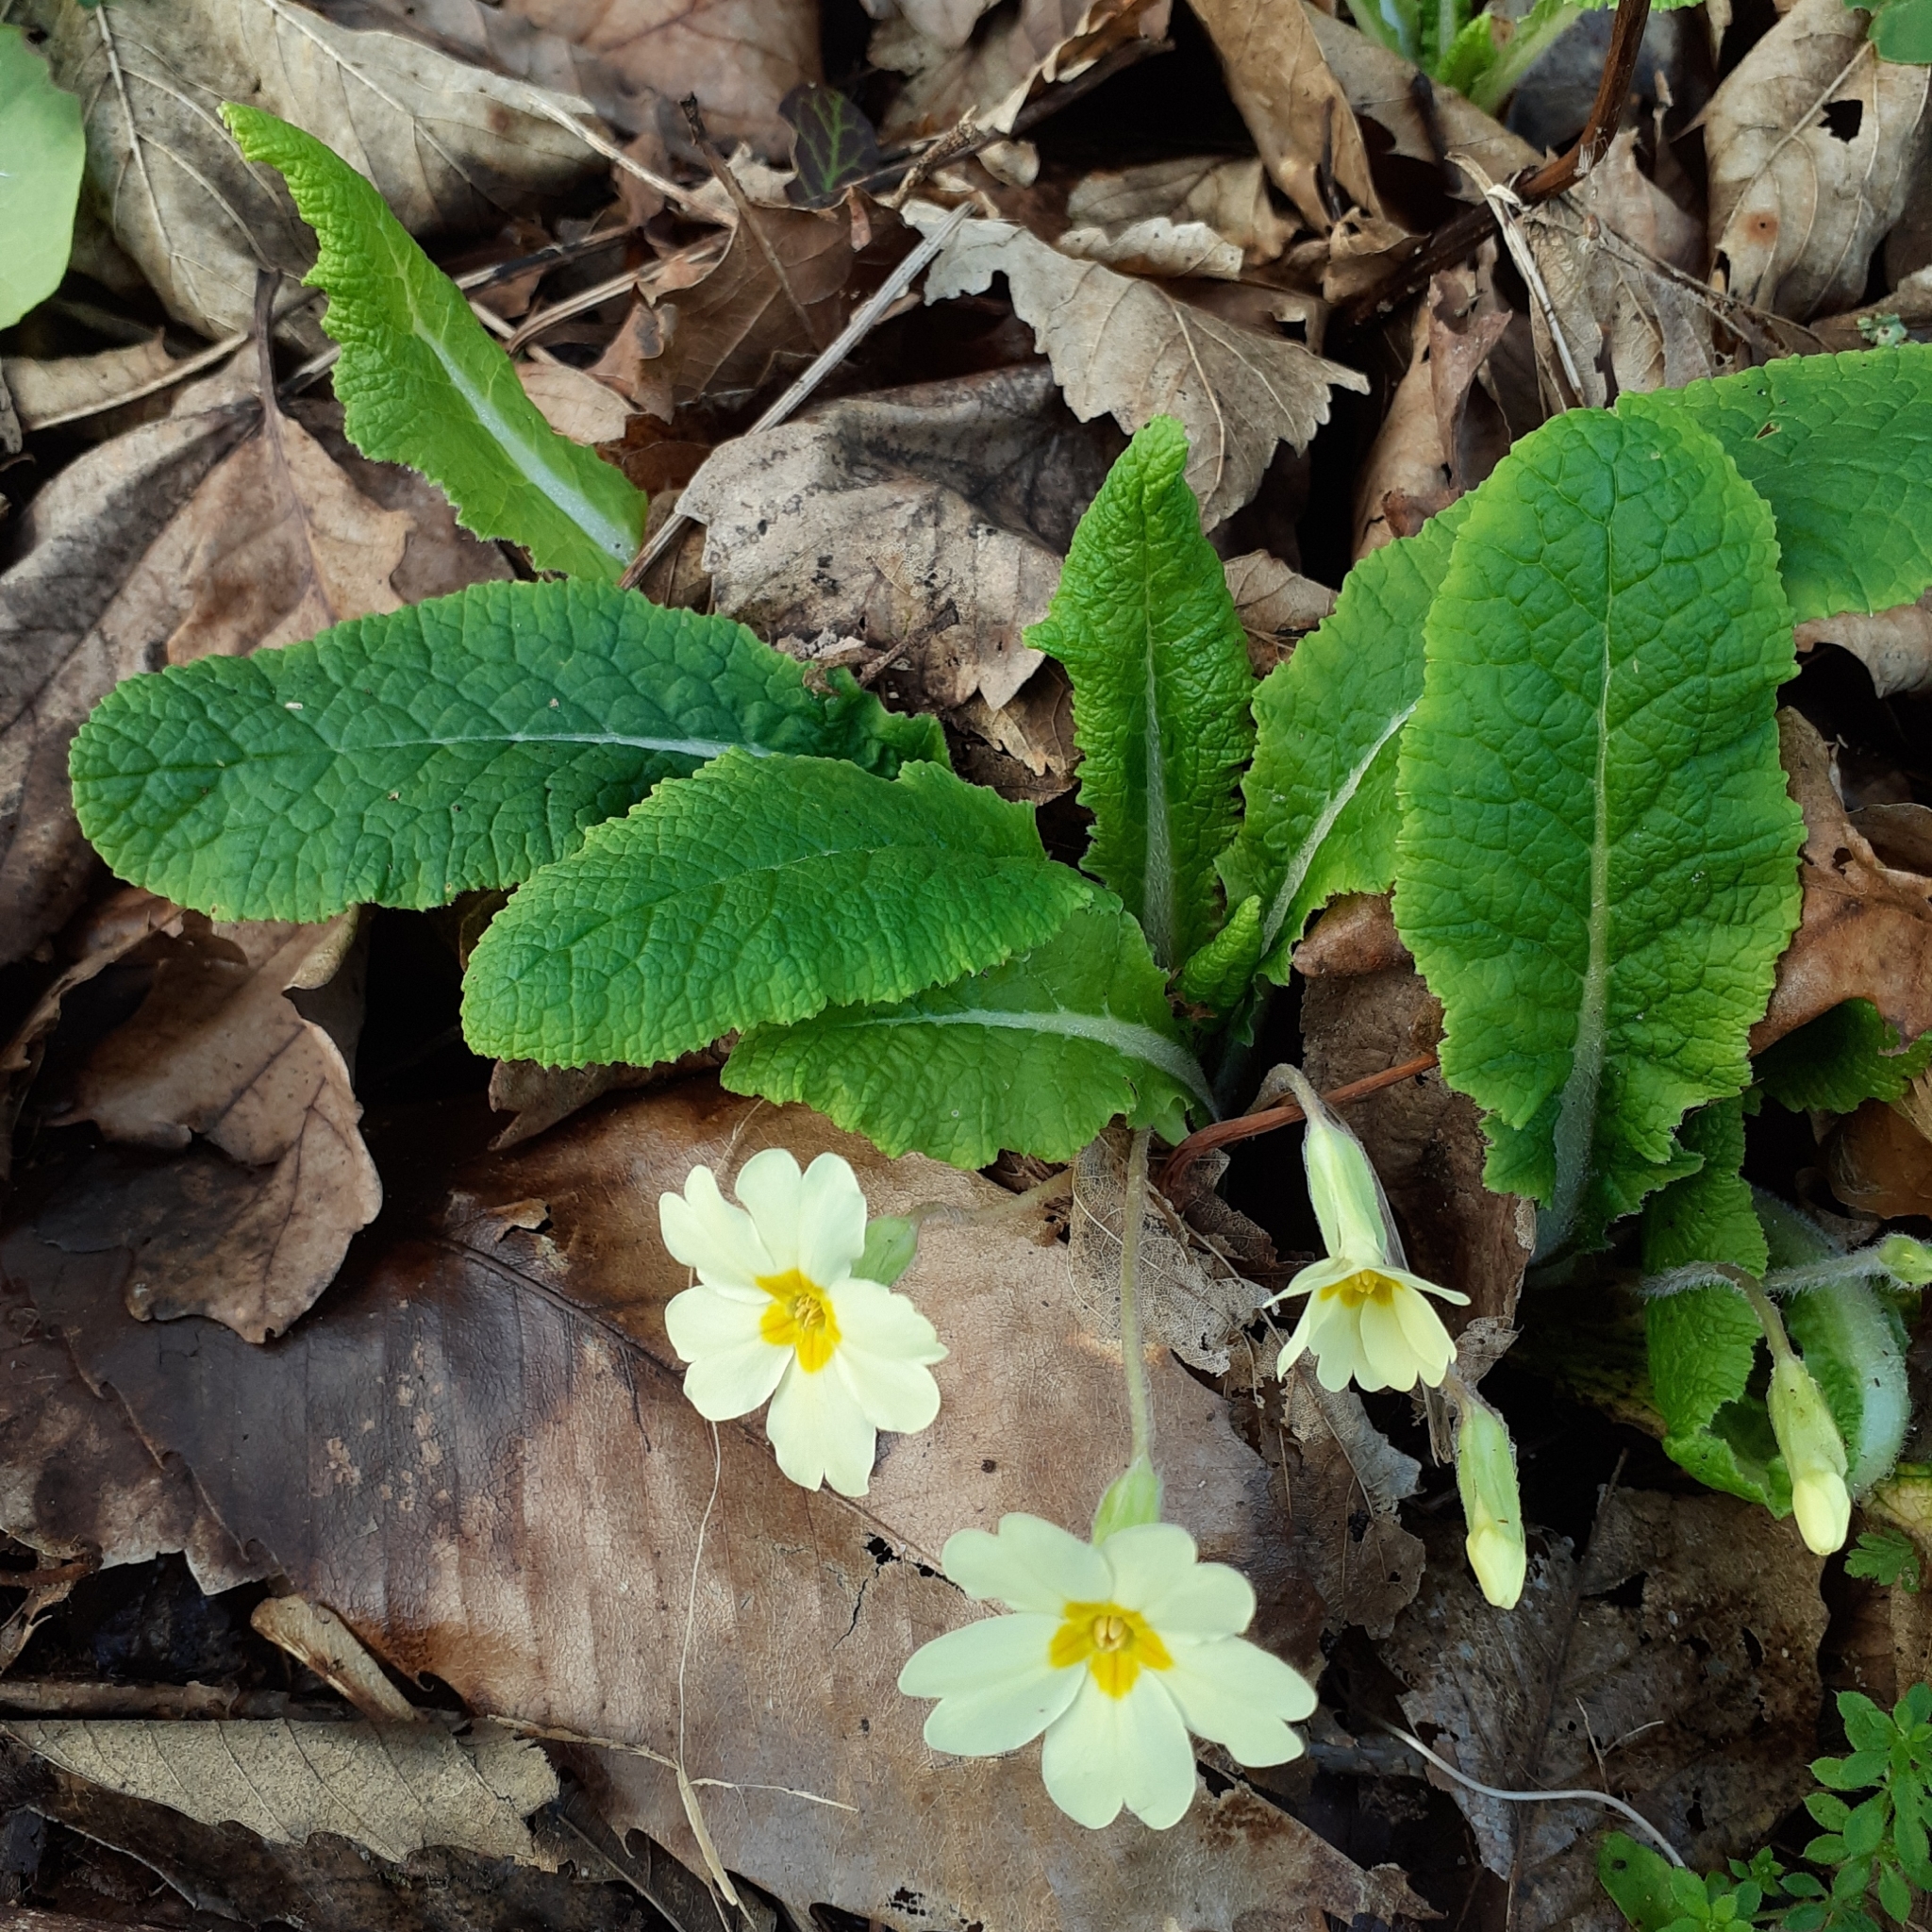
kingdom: Plantae
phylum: Tracheophyta
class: Magnoliopsida
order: Ericales
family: Primulaceae
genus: Primula
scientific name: Primula vulgaris
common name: Primrose
